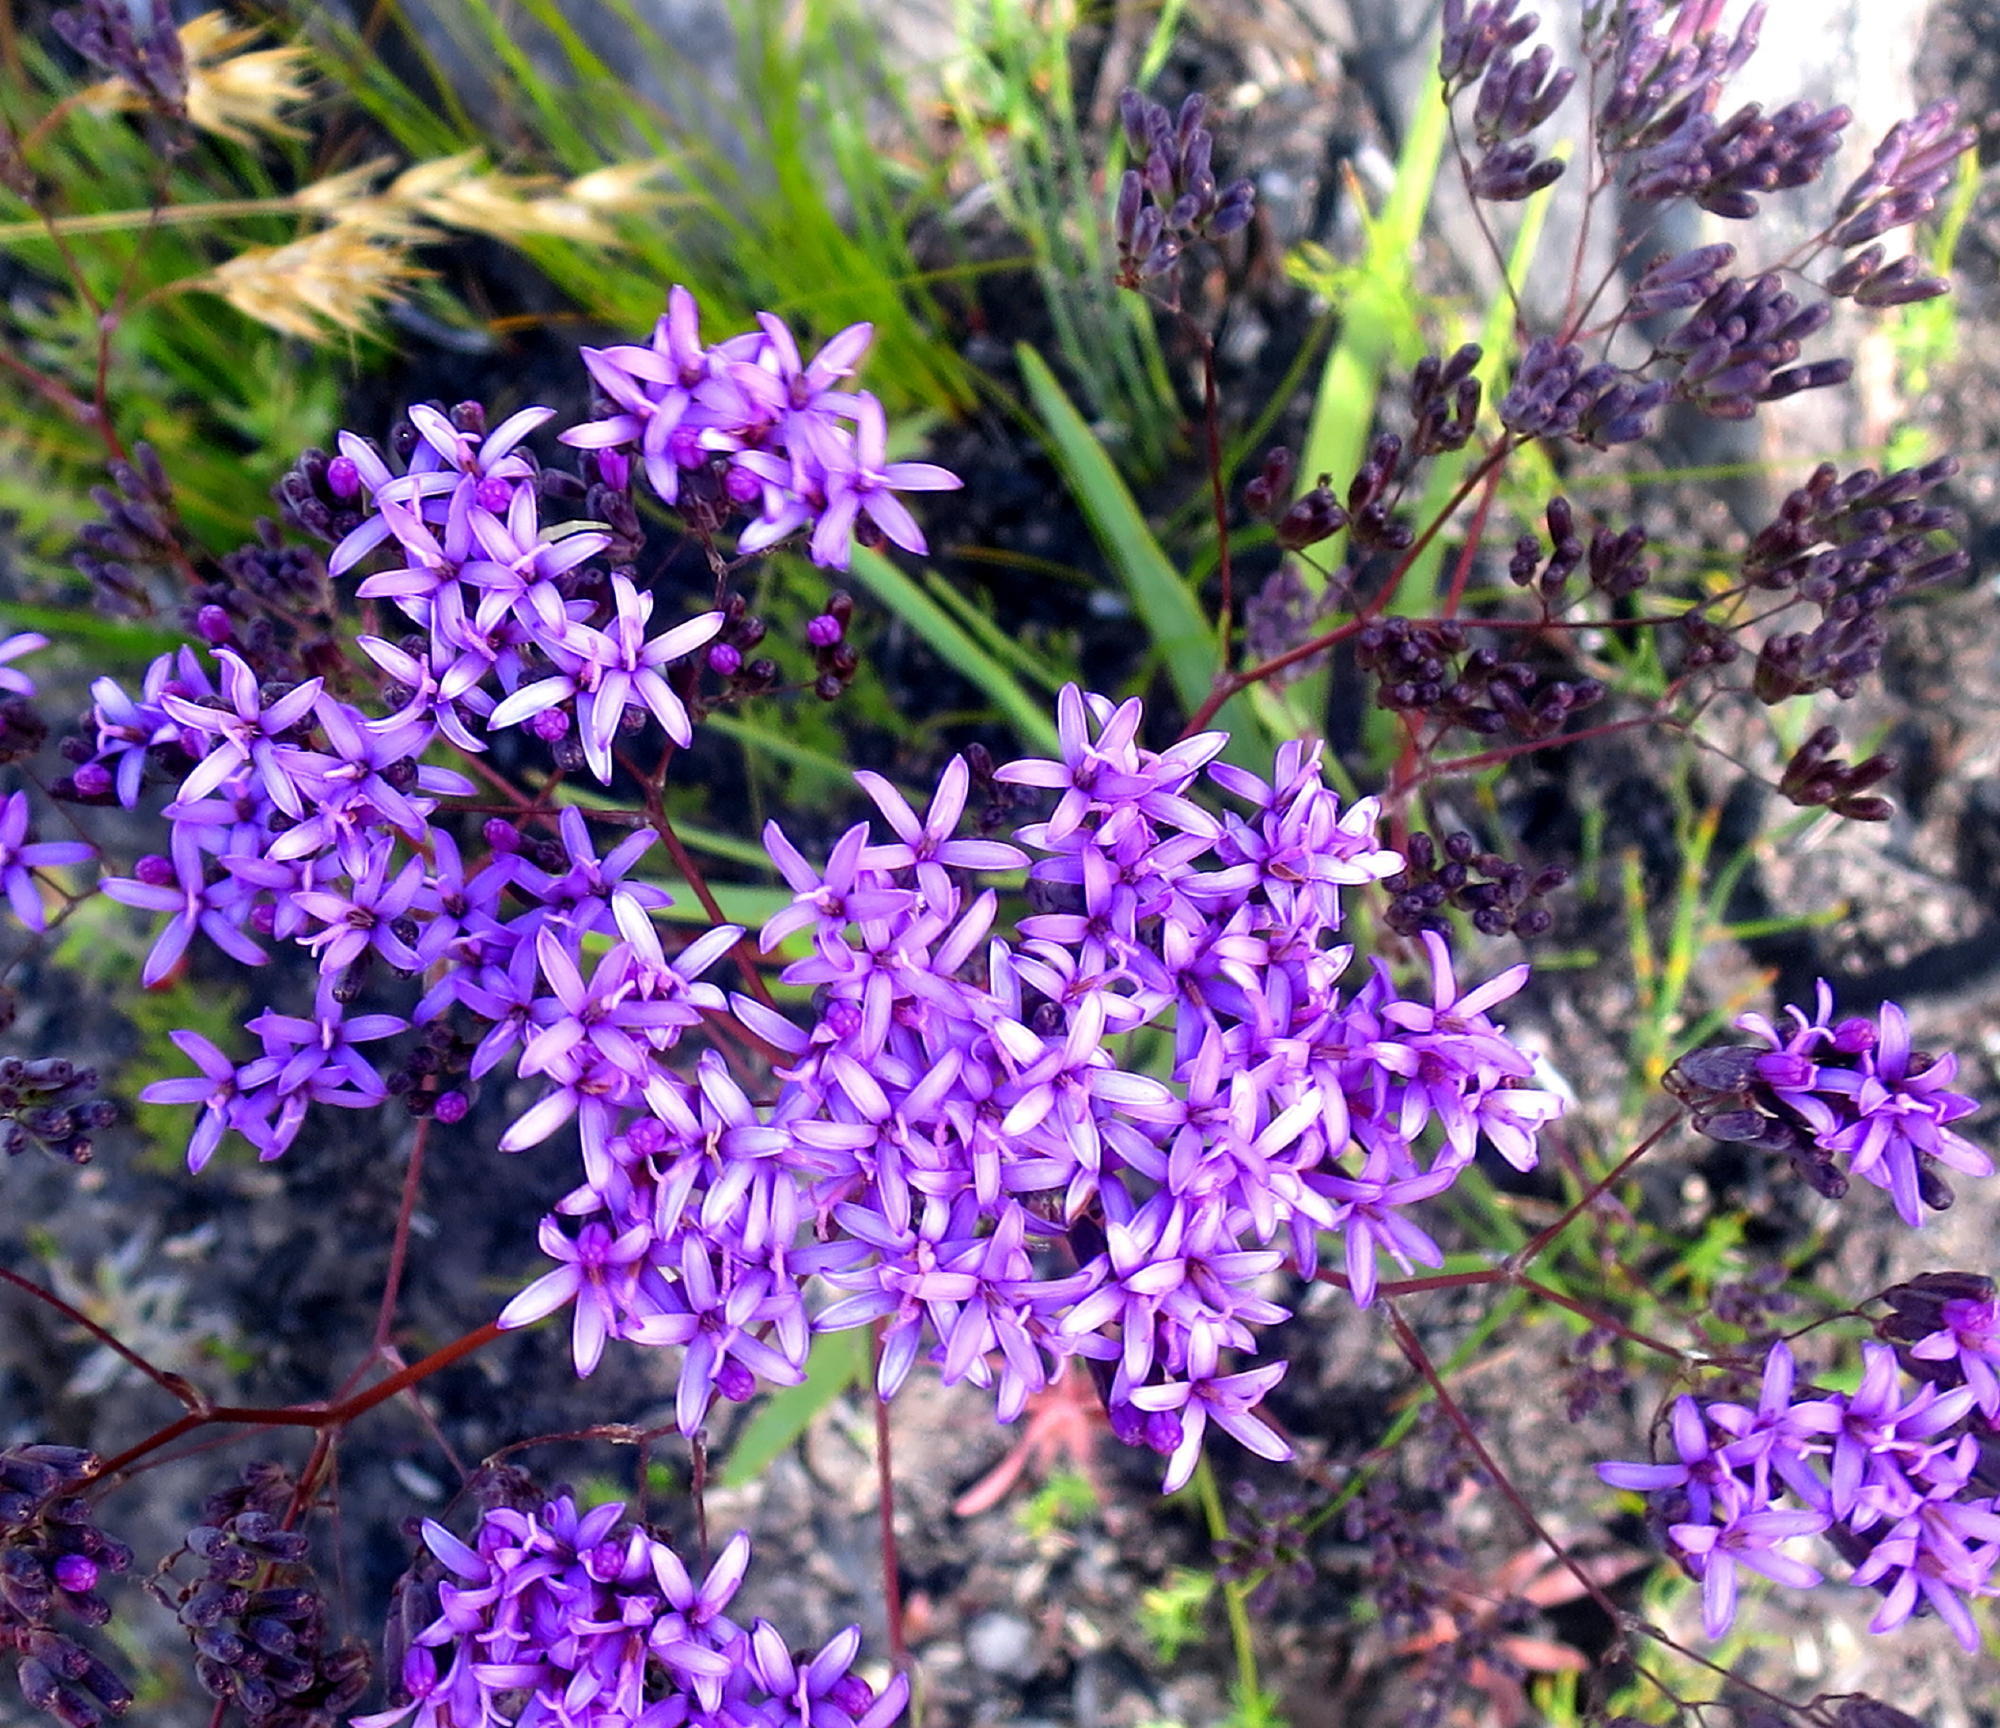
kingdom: Plantae
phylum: Tracheophyta
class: Magnoliopsida
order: Asterales
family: Asteraceae
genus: Corymbium
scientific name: Corymbium glabrum
